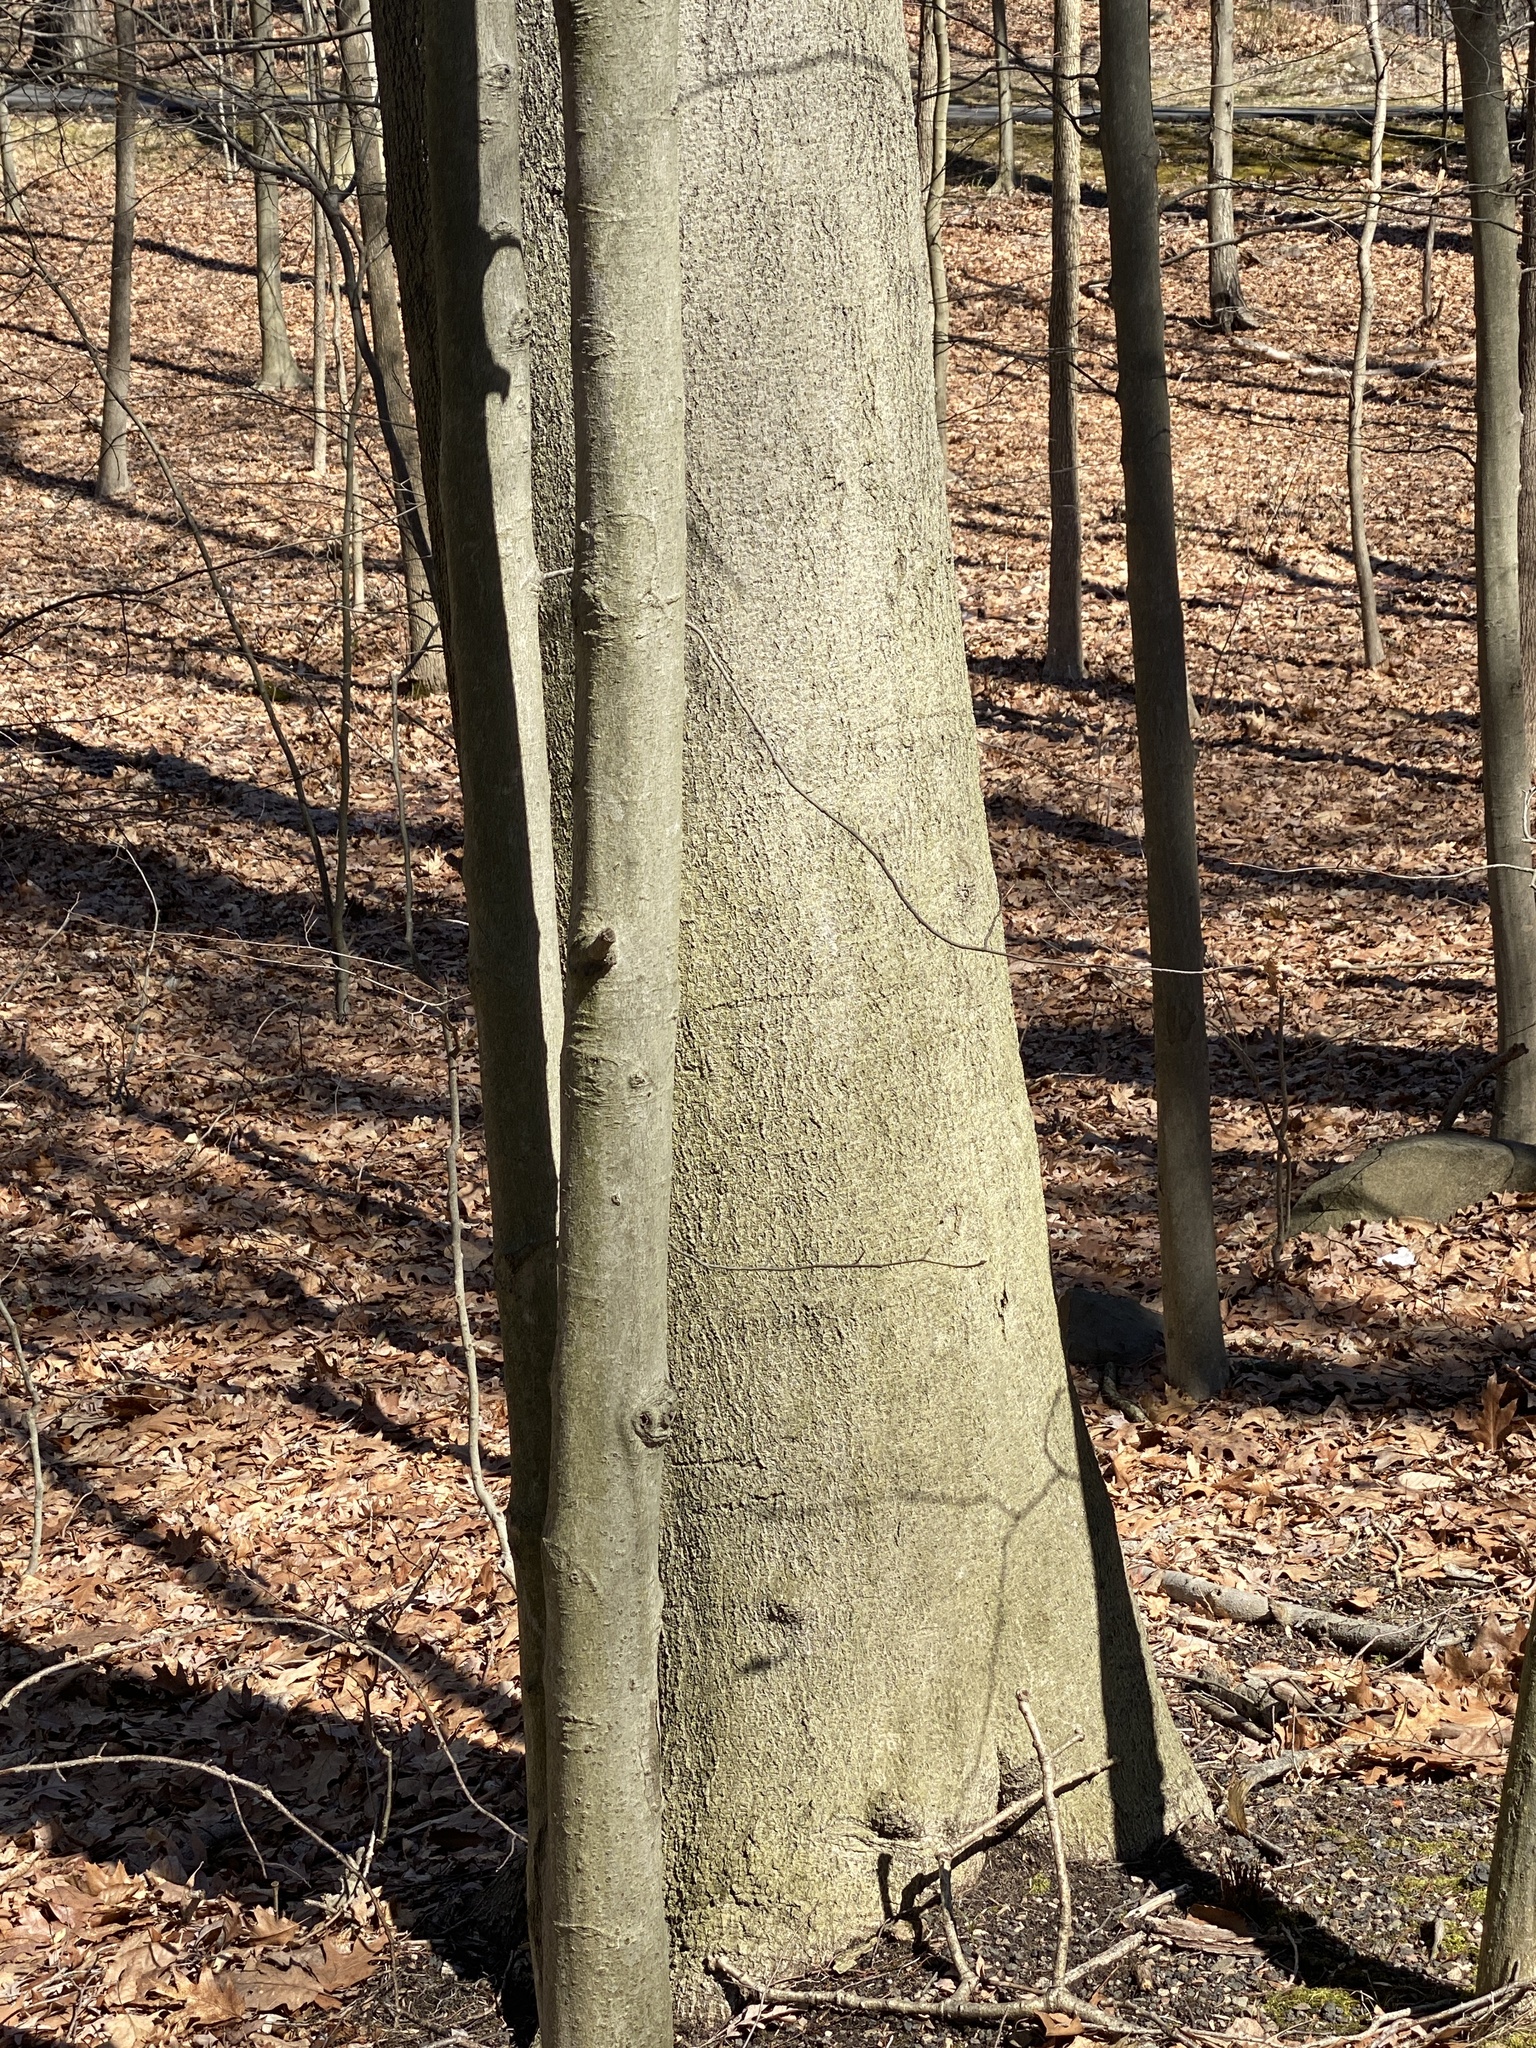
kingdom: Plantae
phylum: Tracheophyta
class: Magnoliopsida
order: Fagales
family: Fagaceae
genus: Fagus
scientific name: Fagus grandifolia
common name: American beech
